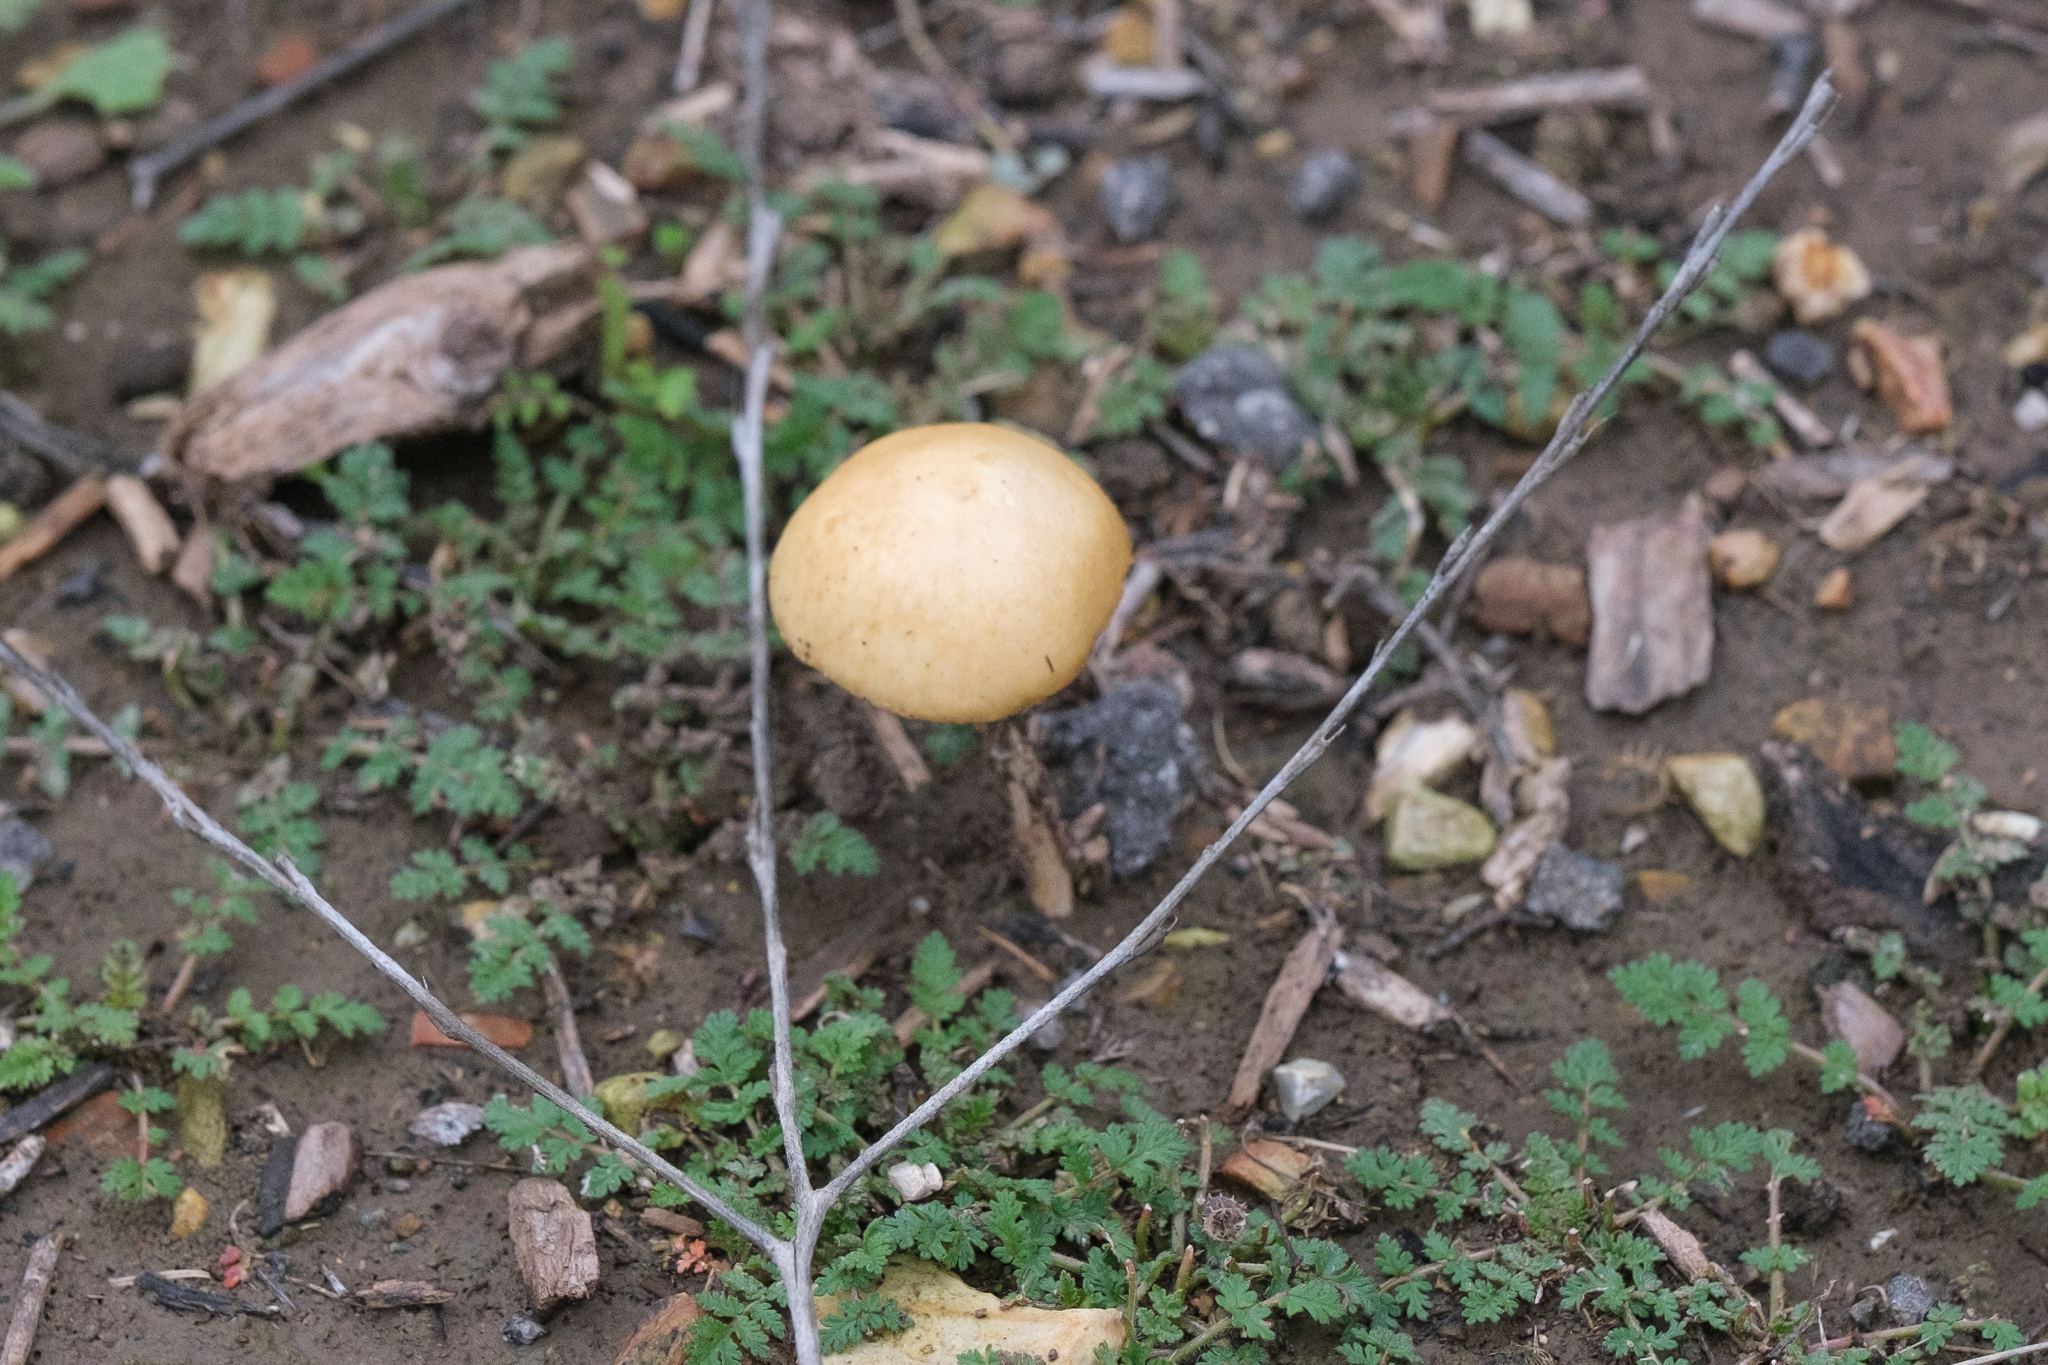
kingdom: Fungi
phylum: Basidiomycota
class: Agaricomycetes
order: Agaricales
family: Strophariaceae
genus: Agrocybe
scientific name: Agrocybe pediades
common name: Common fieldcap
